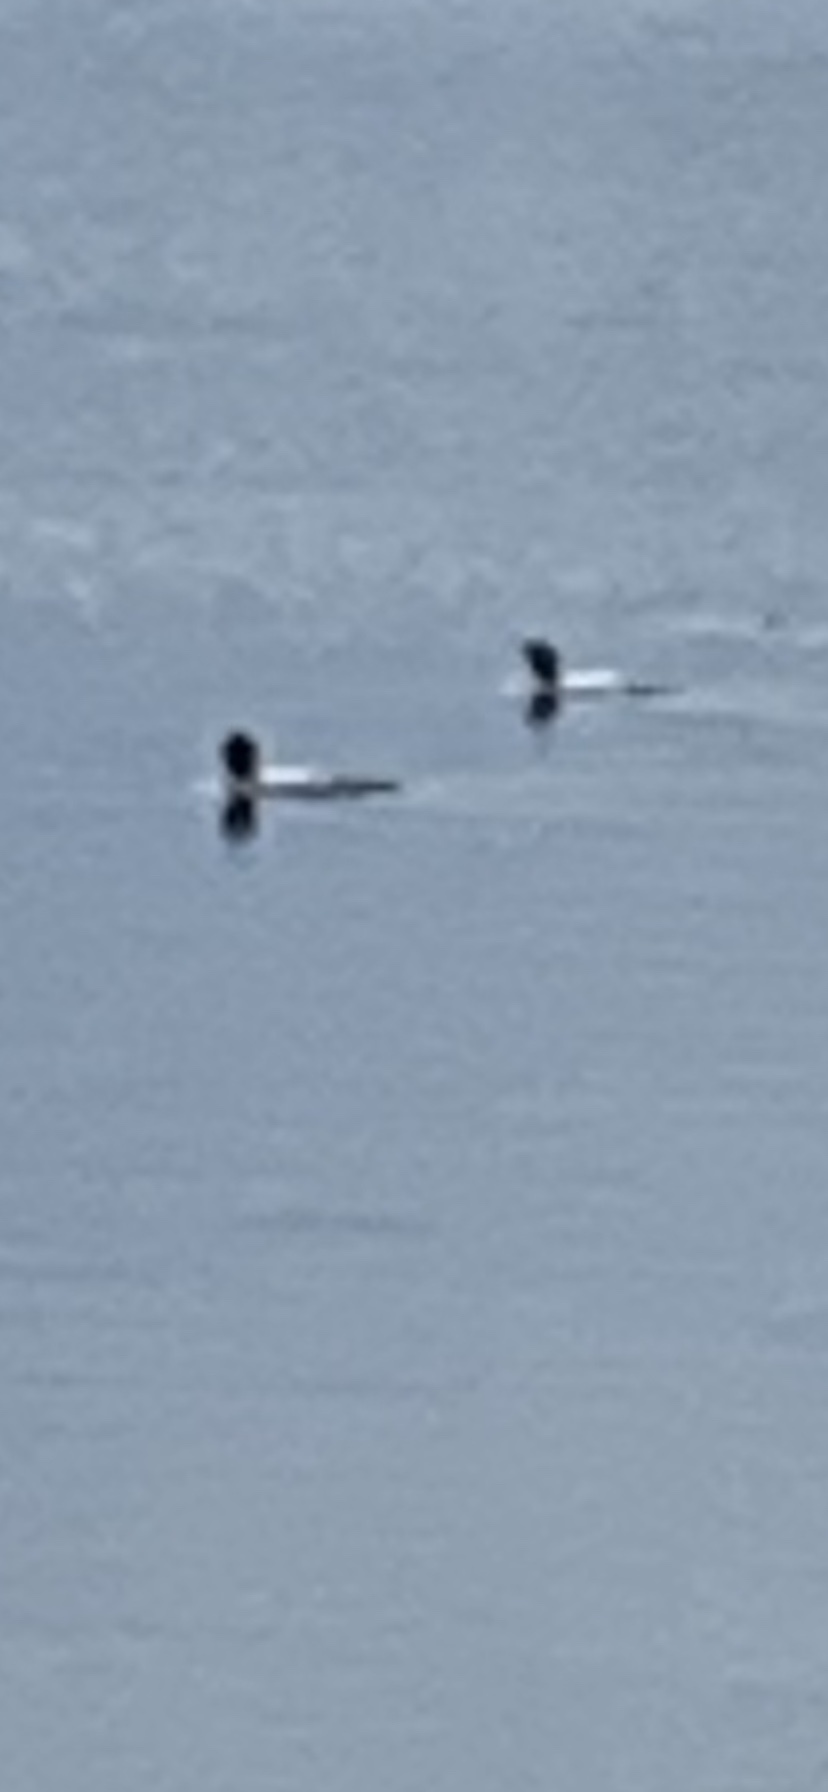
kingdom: Animalia
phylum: Chordata
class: Aves
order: Gaviiformes
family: Gaviidae
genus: Gavia
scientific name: Gavia immer
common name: Common loon
